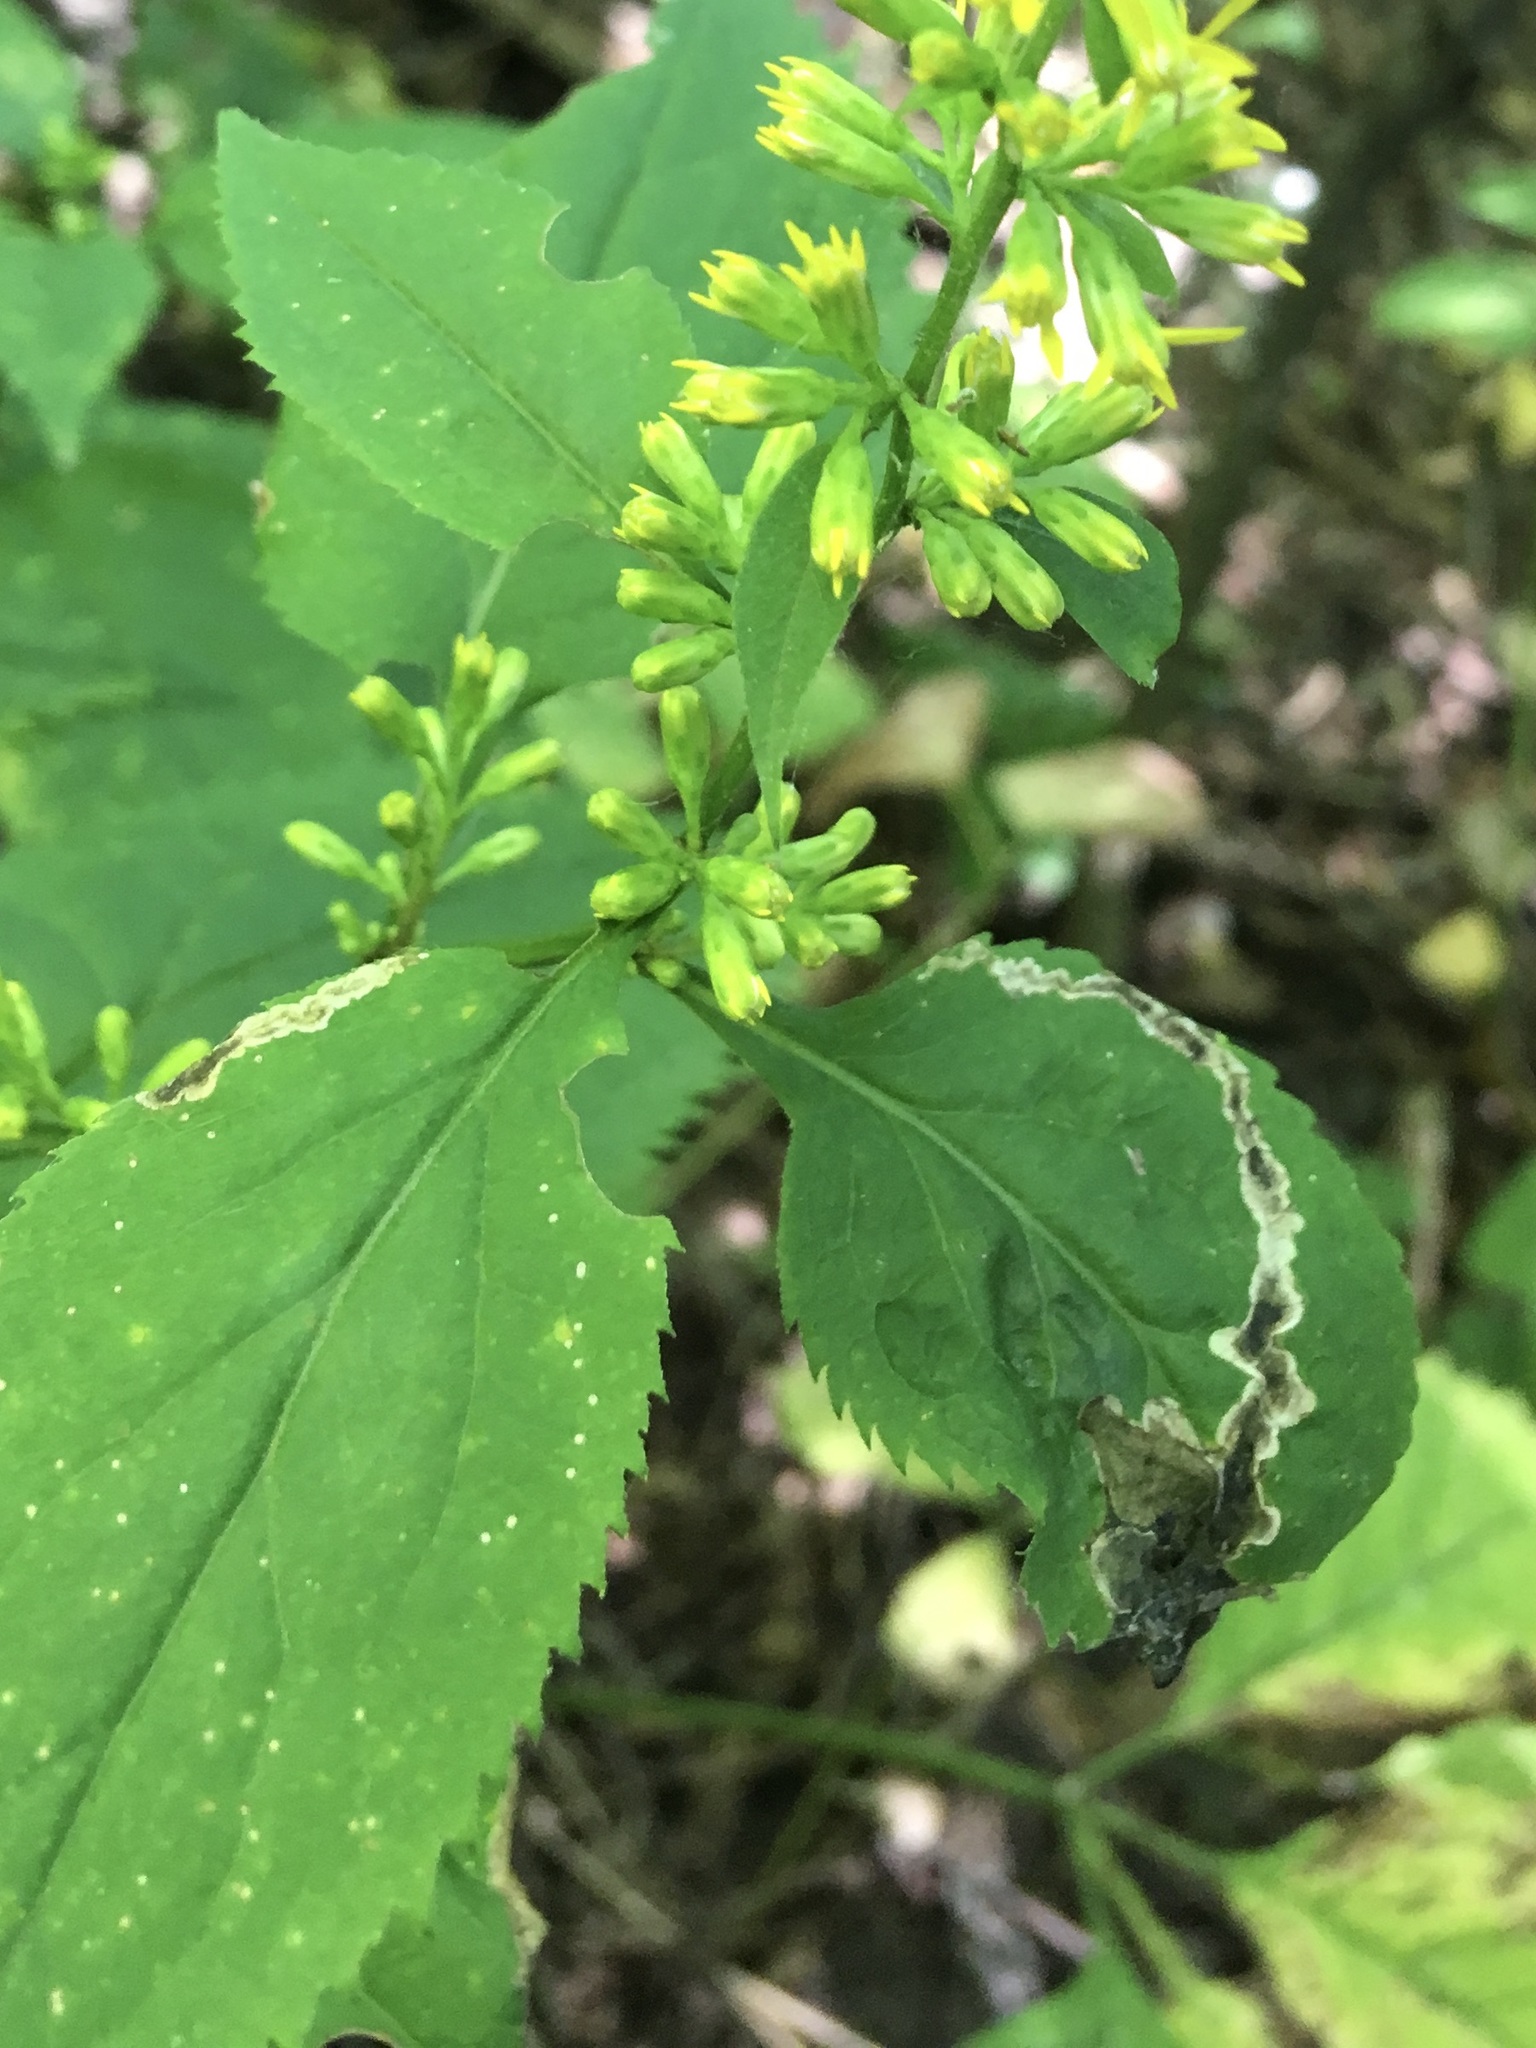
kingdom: Animalia
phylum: Arthropoda
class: Insecta
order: Diptera
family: Agromyzidae
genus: Nemorimyza
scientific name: Nemorimyza posticata
